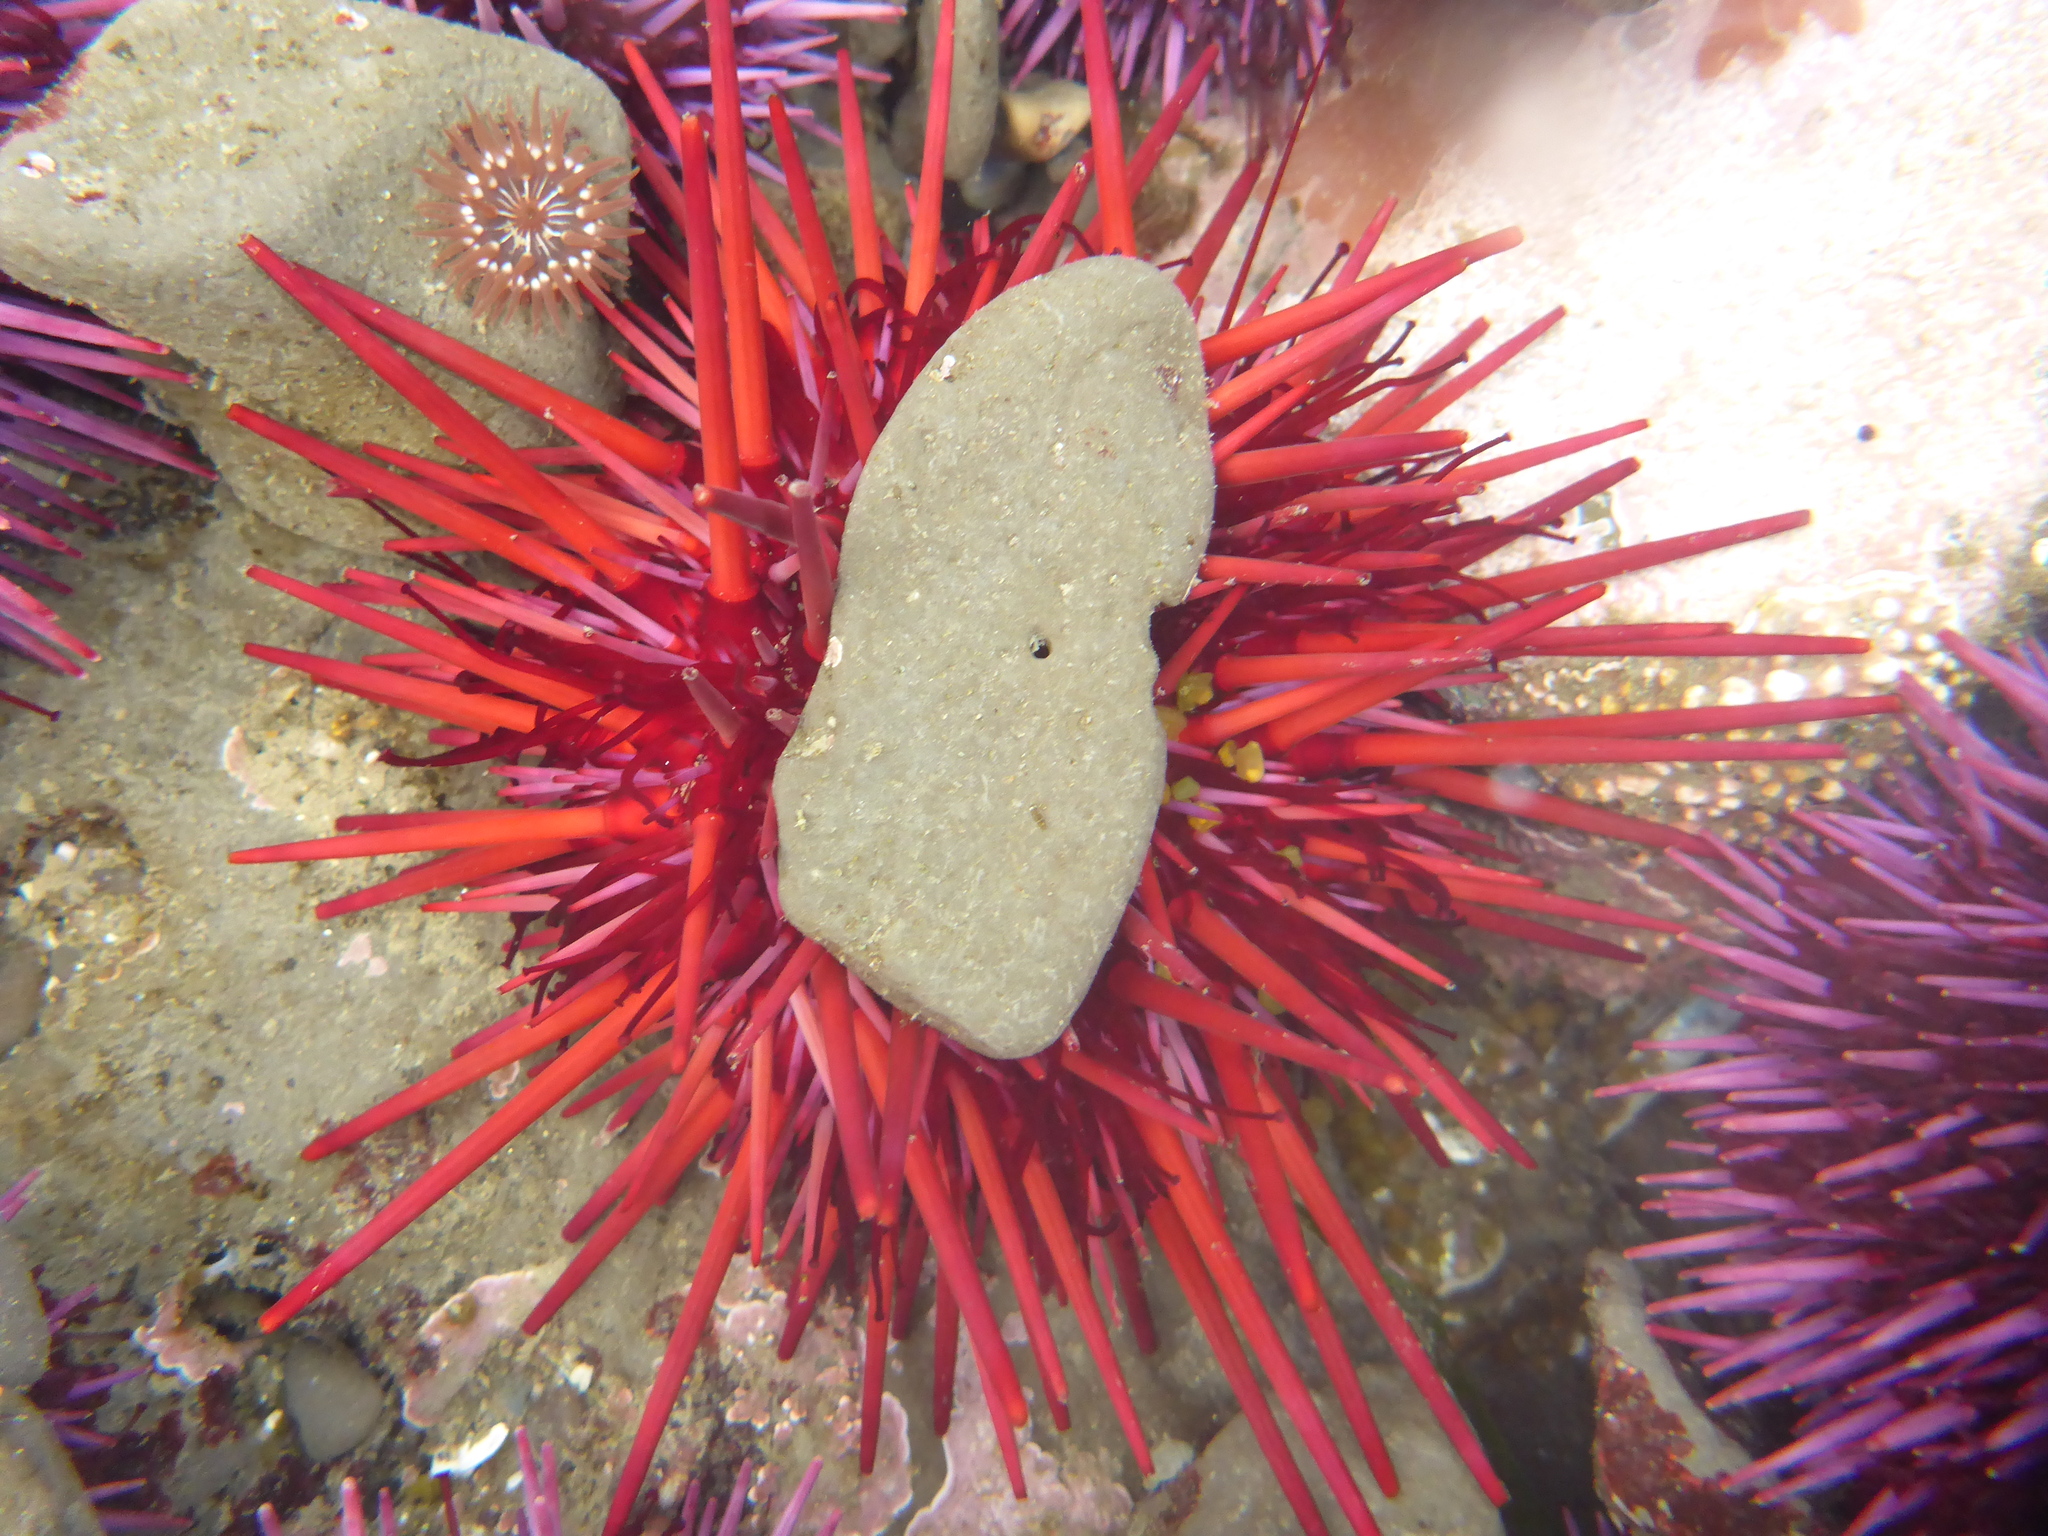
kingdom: Animalia
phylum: Echinodermata
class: Echinoidea
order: Camarodonta
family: Strongylocentrotidae
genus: Mesocentrotus
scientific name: Mesocentrotus franciscanus
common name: Red sea urchin
